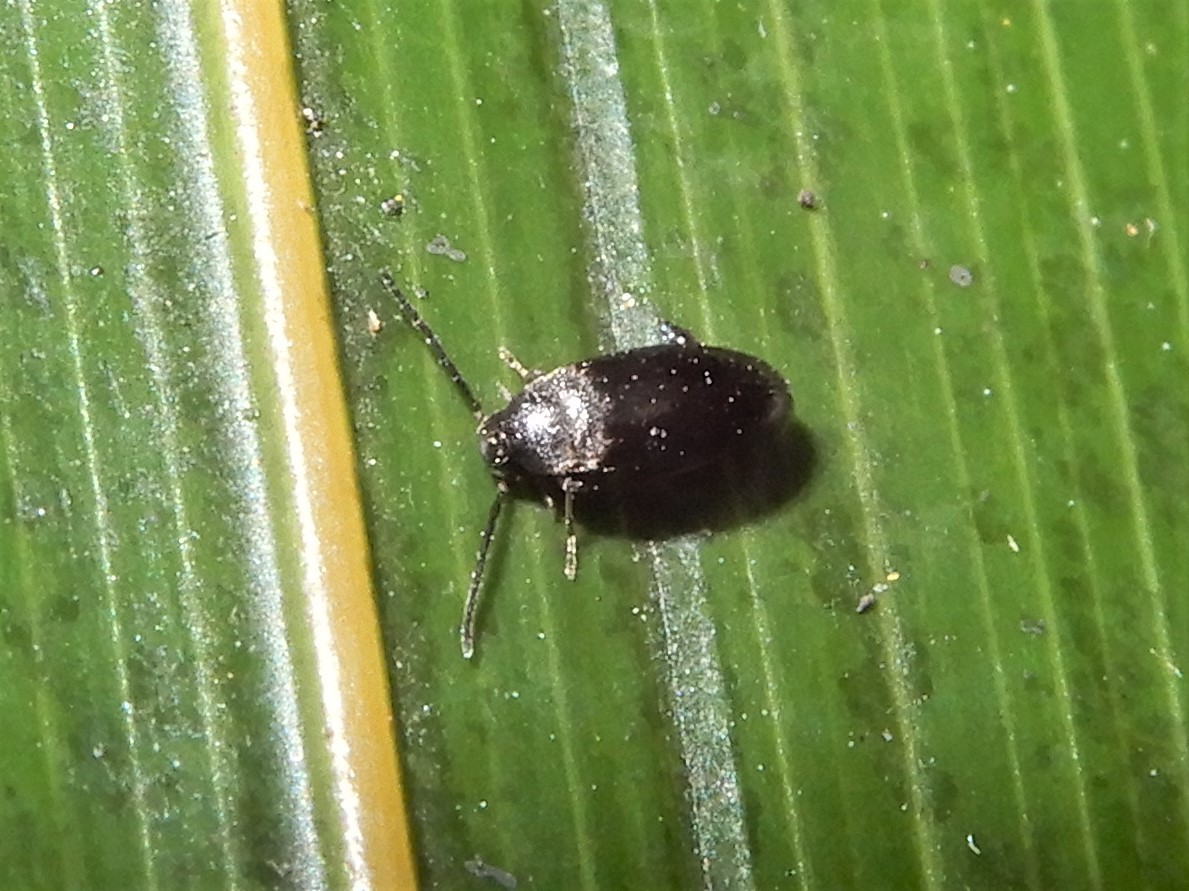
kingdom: Animalia
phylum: Arthropoda
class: Insecta
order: Coleoptera
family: Scraptiidae
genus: Nothotelus
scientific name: Nothotelus
